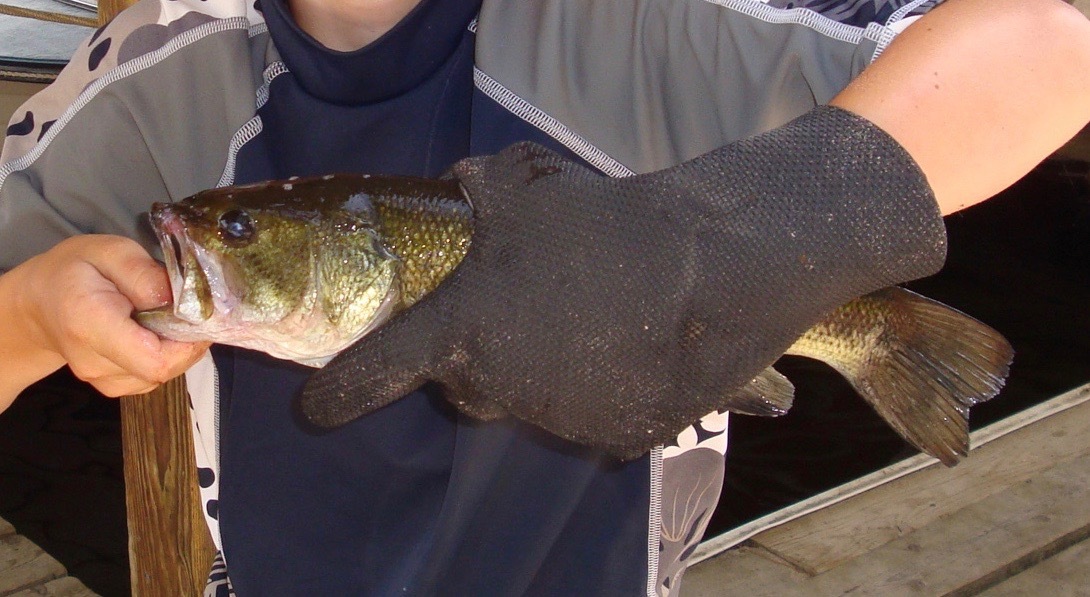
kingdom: Animalia
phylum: Chordata
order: Perciformes
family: Centrarchidae
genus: Micropterus
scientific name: Micropterus
